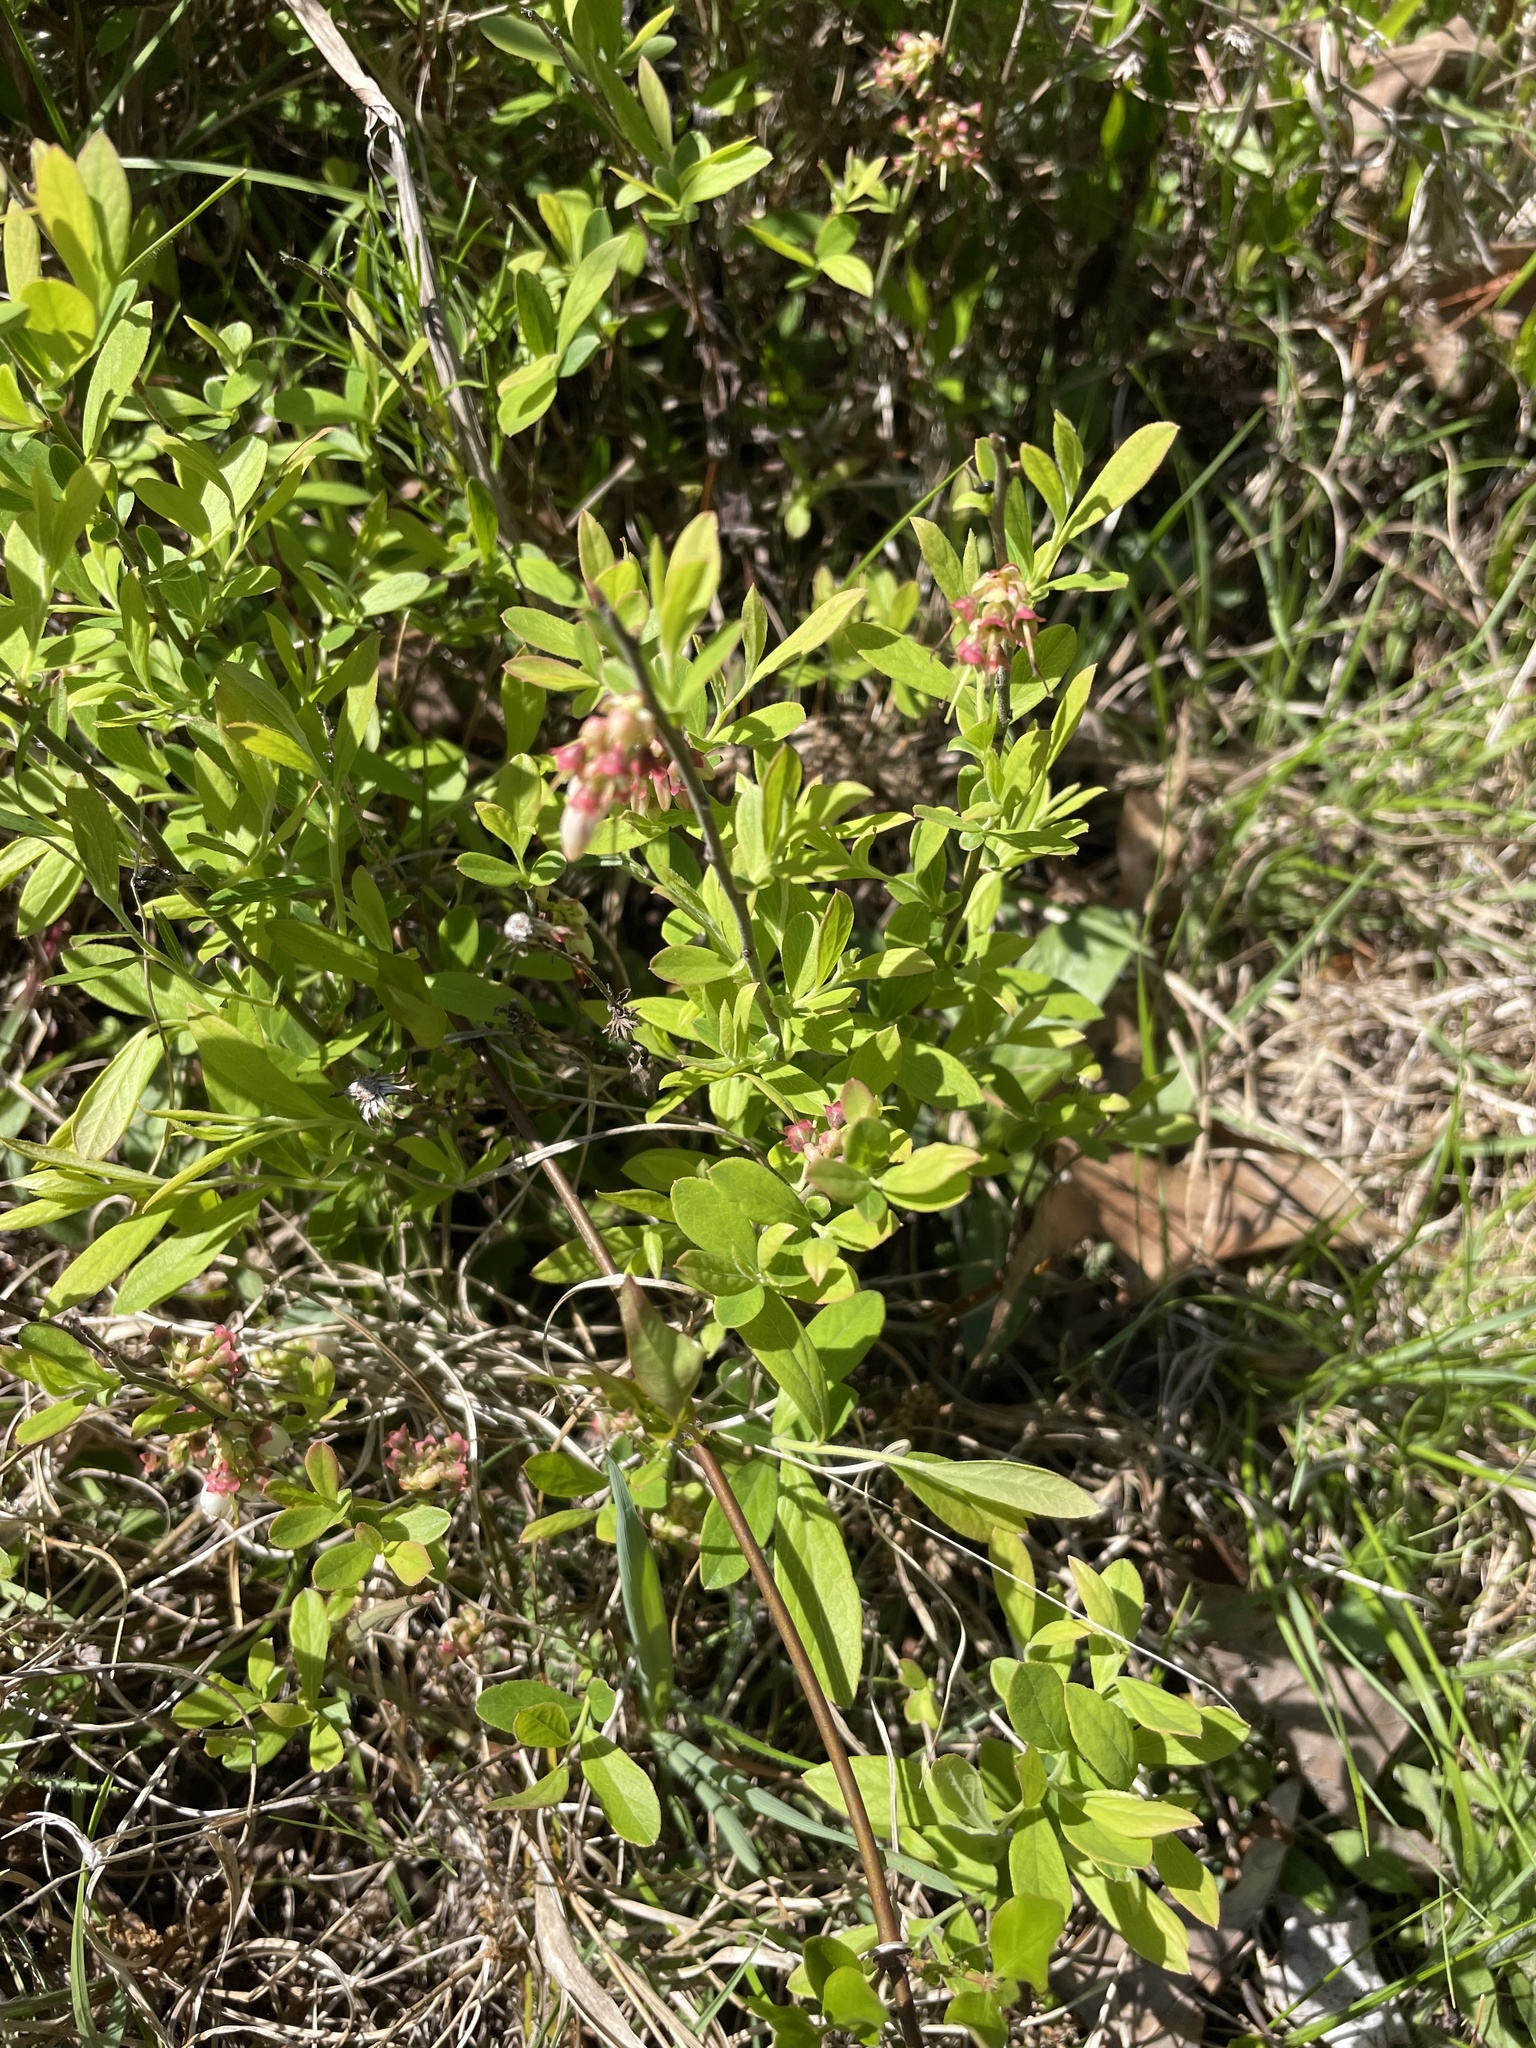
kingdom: Plantae
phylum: Tracheophyta
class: Magnoliopsida
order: Ericales
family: Ericaceae
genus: Vaccinium
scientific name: Vaccinium tenellum
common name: Southern blueberry
